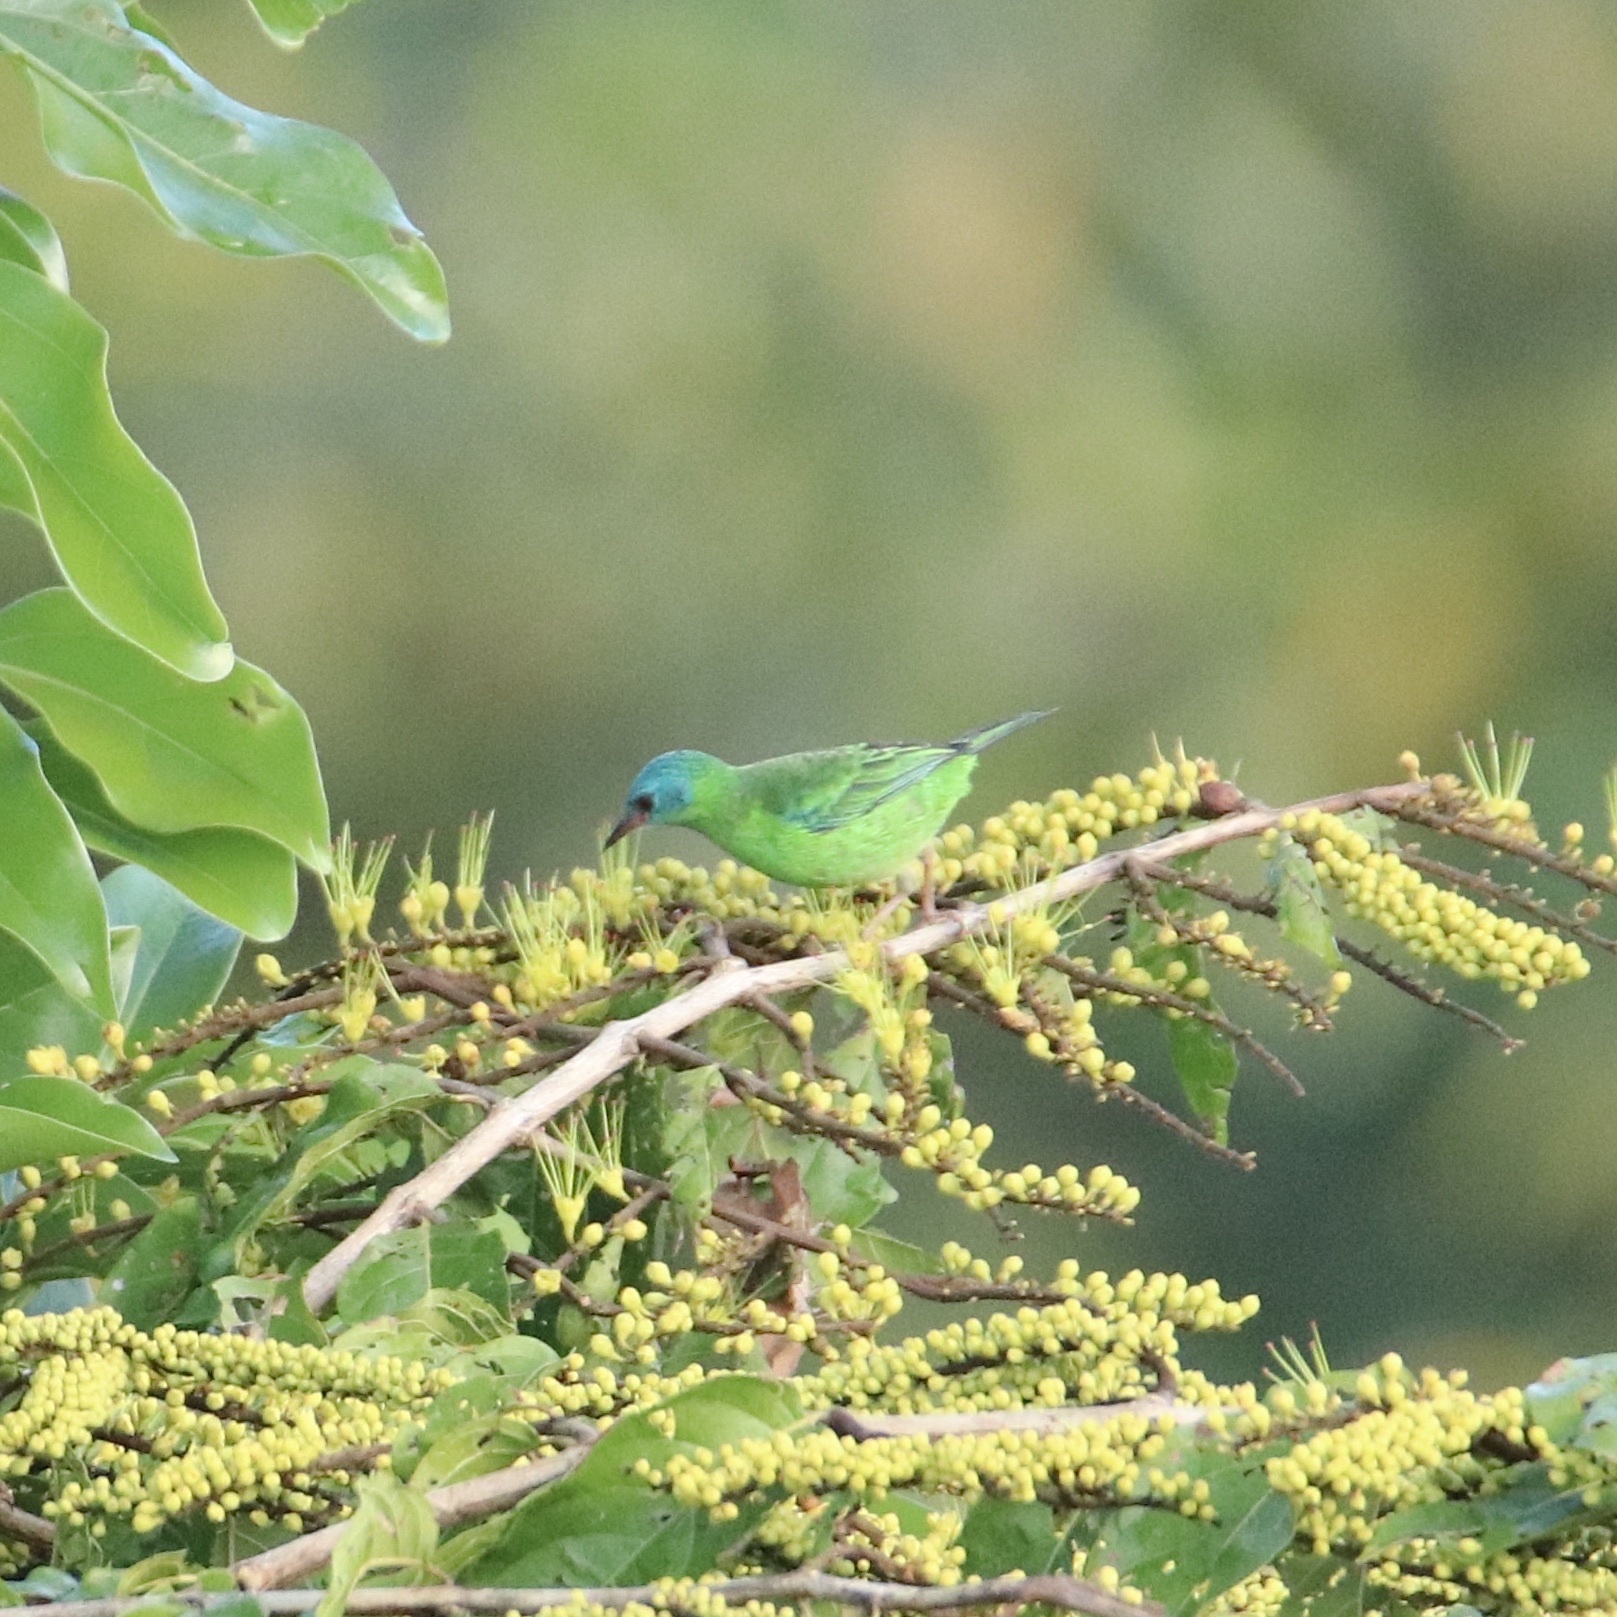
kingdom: Animalia
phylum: Chordata
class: Aves
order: Passeriformes
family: Thraupidae
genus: Dacnis
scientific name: Dacnis cayana
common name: Blue dacnis
